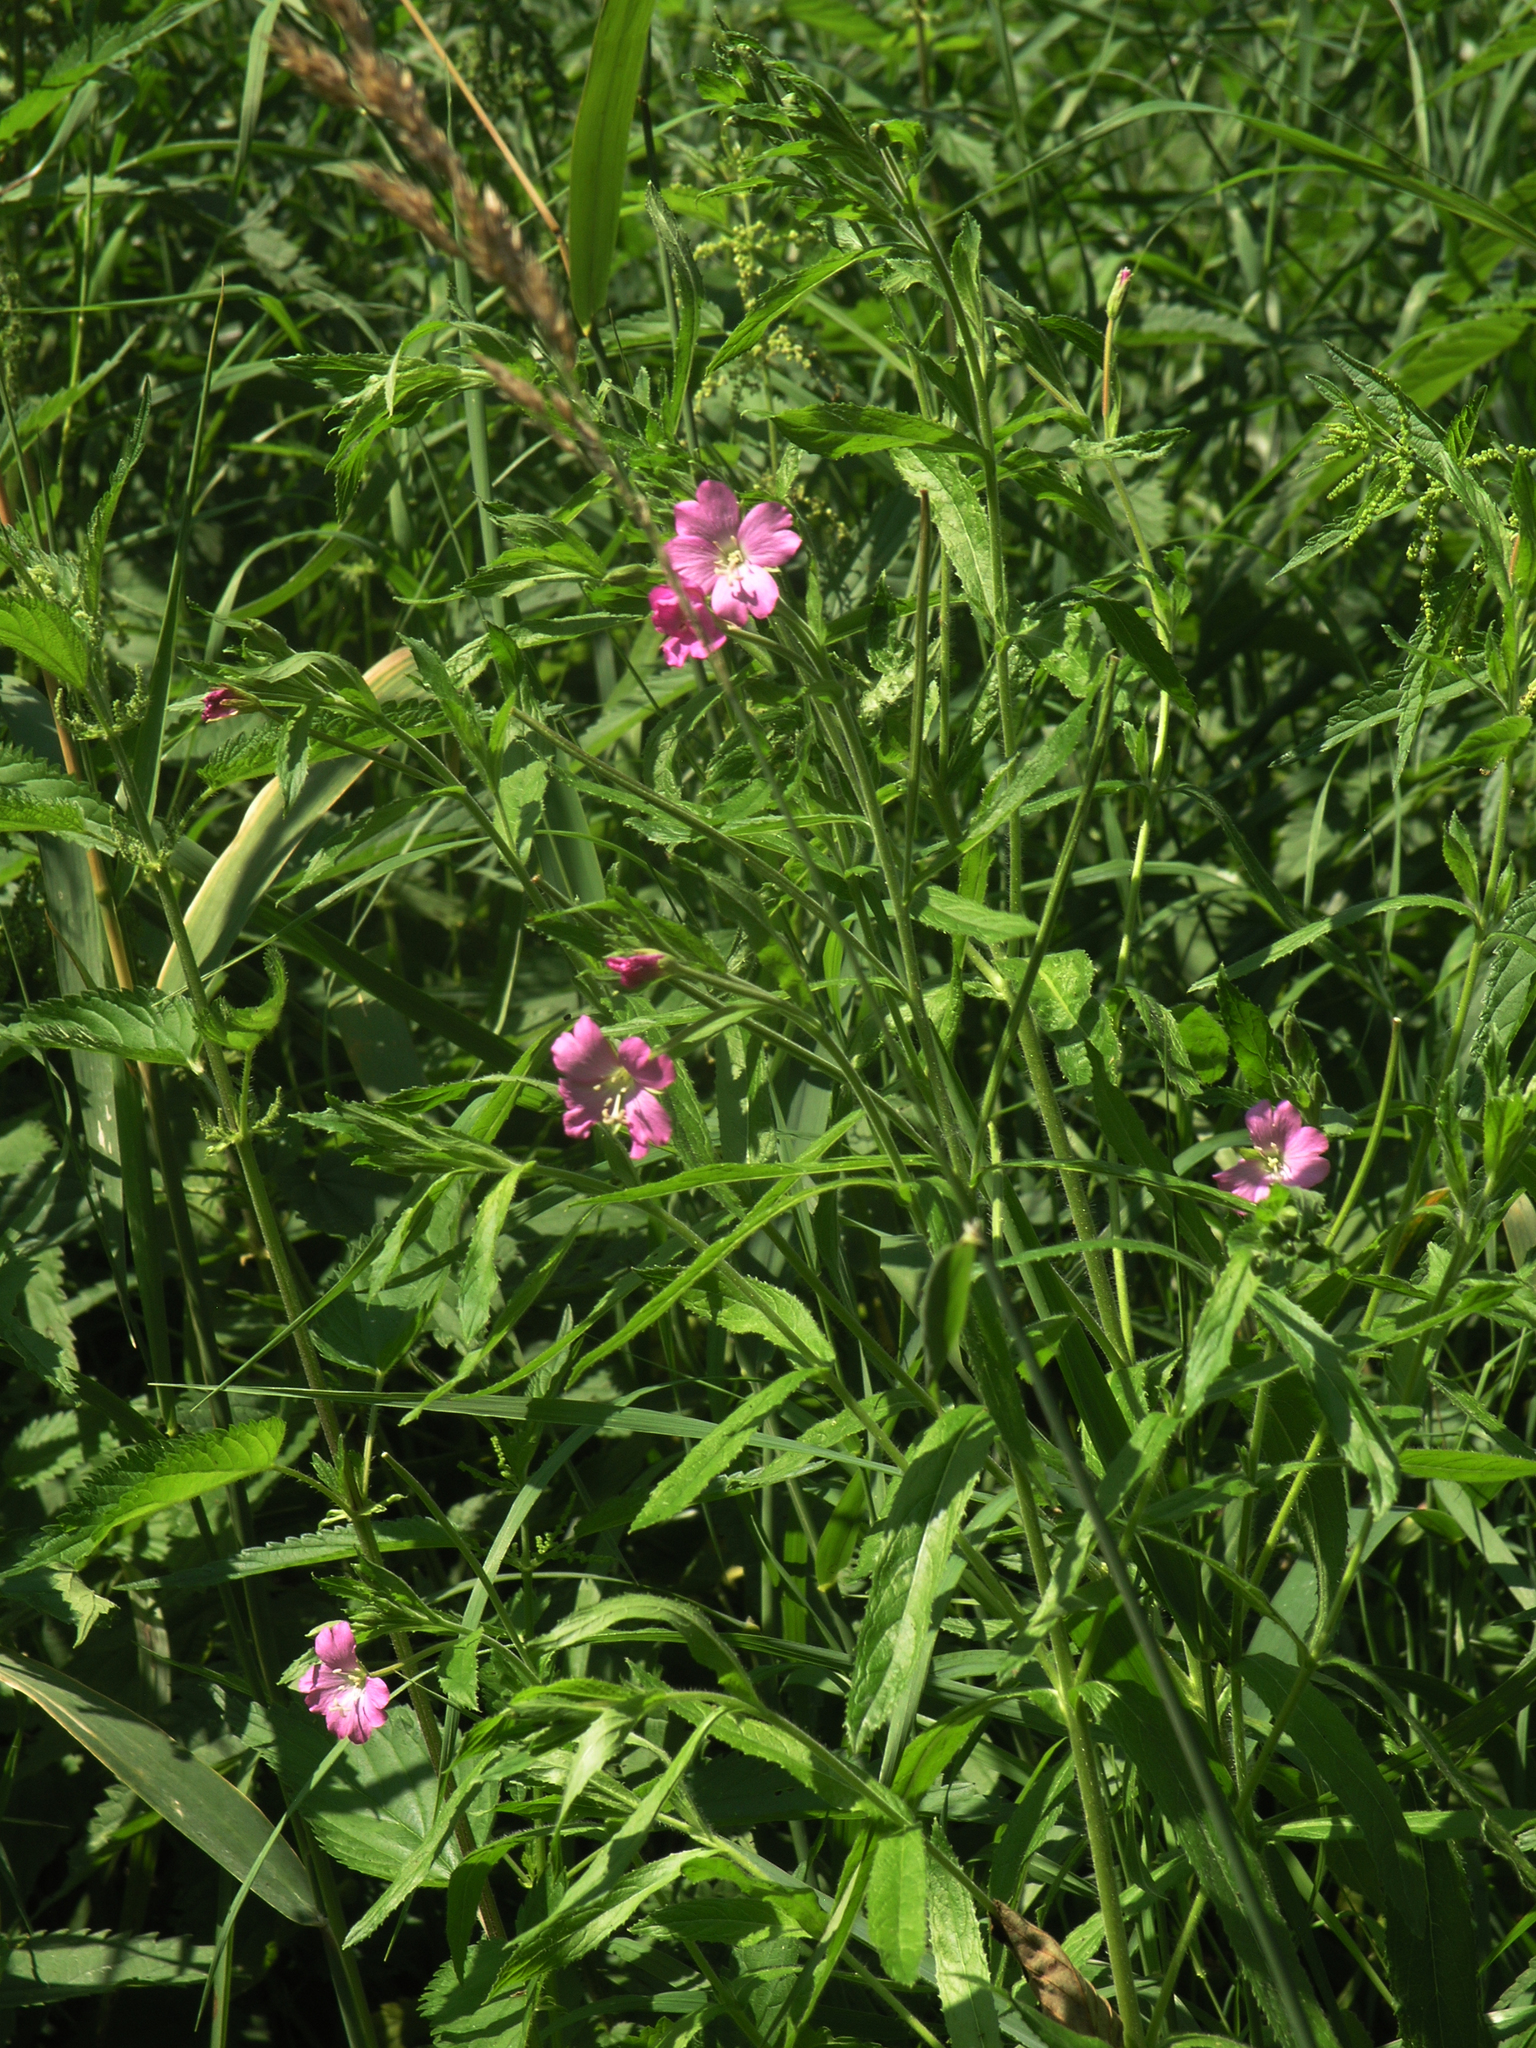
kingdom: Plantae
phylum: Tracheophyta
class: Magnoliopsida
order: Myrtales
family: Onagraceae
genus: Epilobium
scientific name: Epilobium hirsutum
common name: Great willowherb
